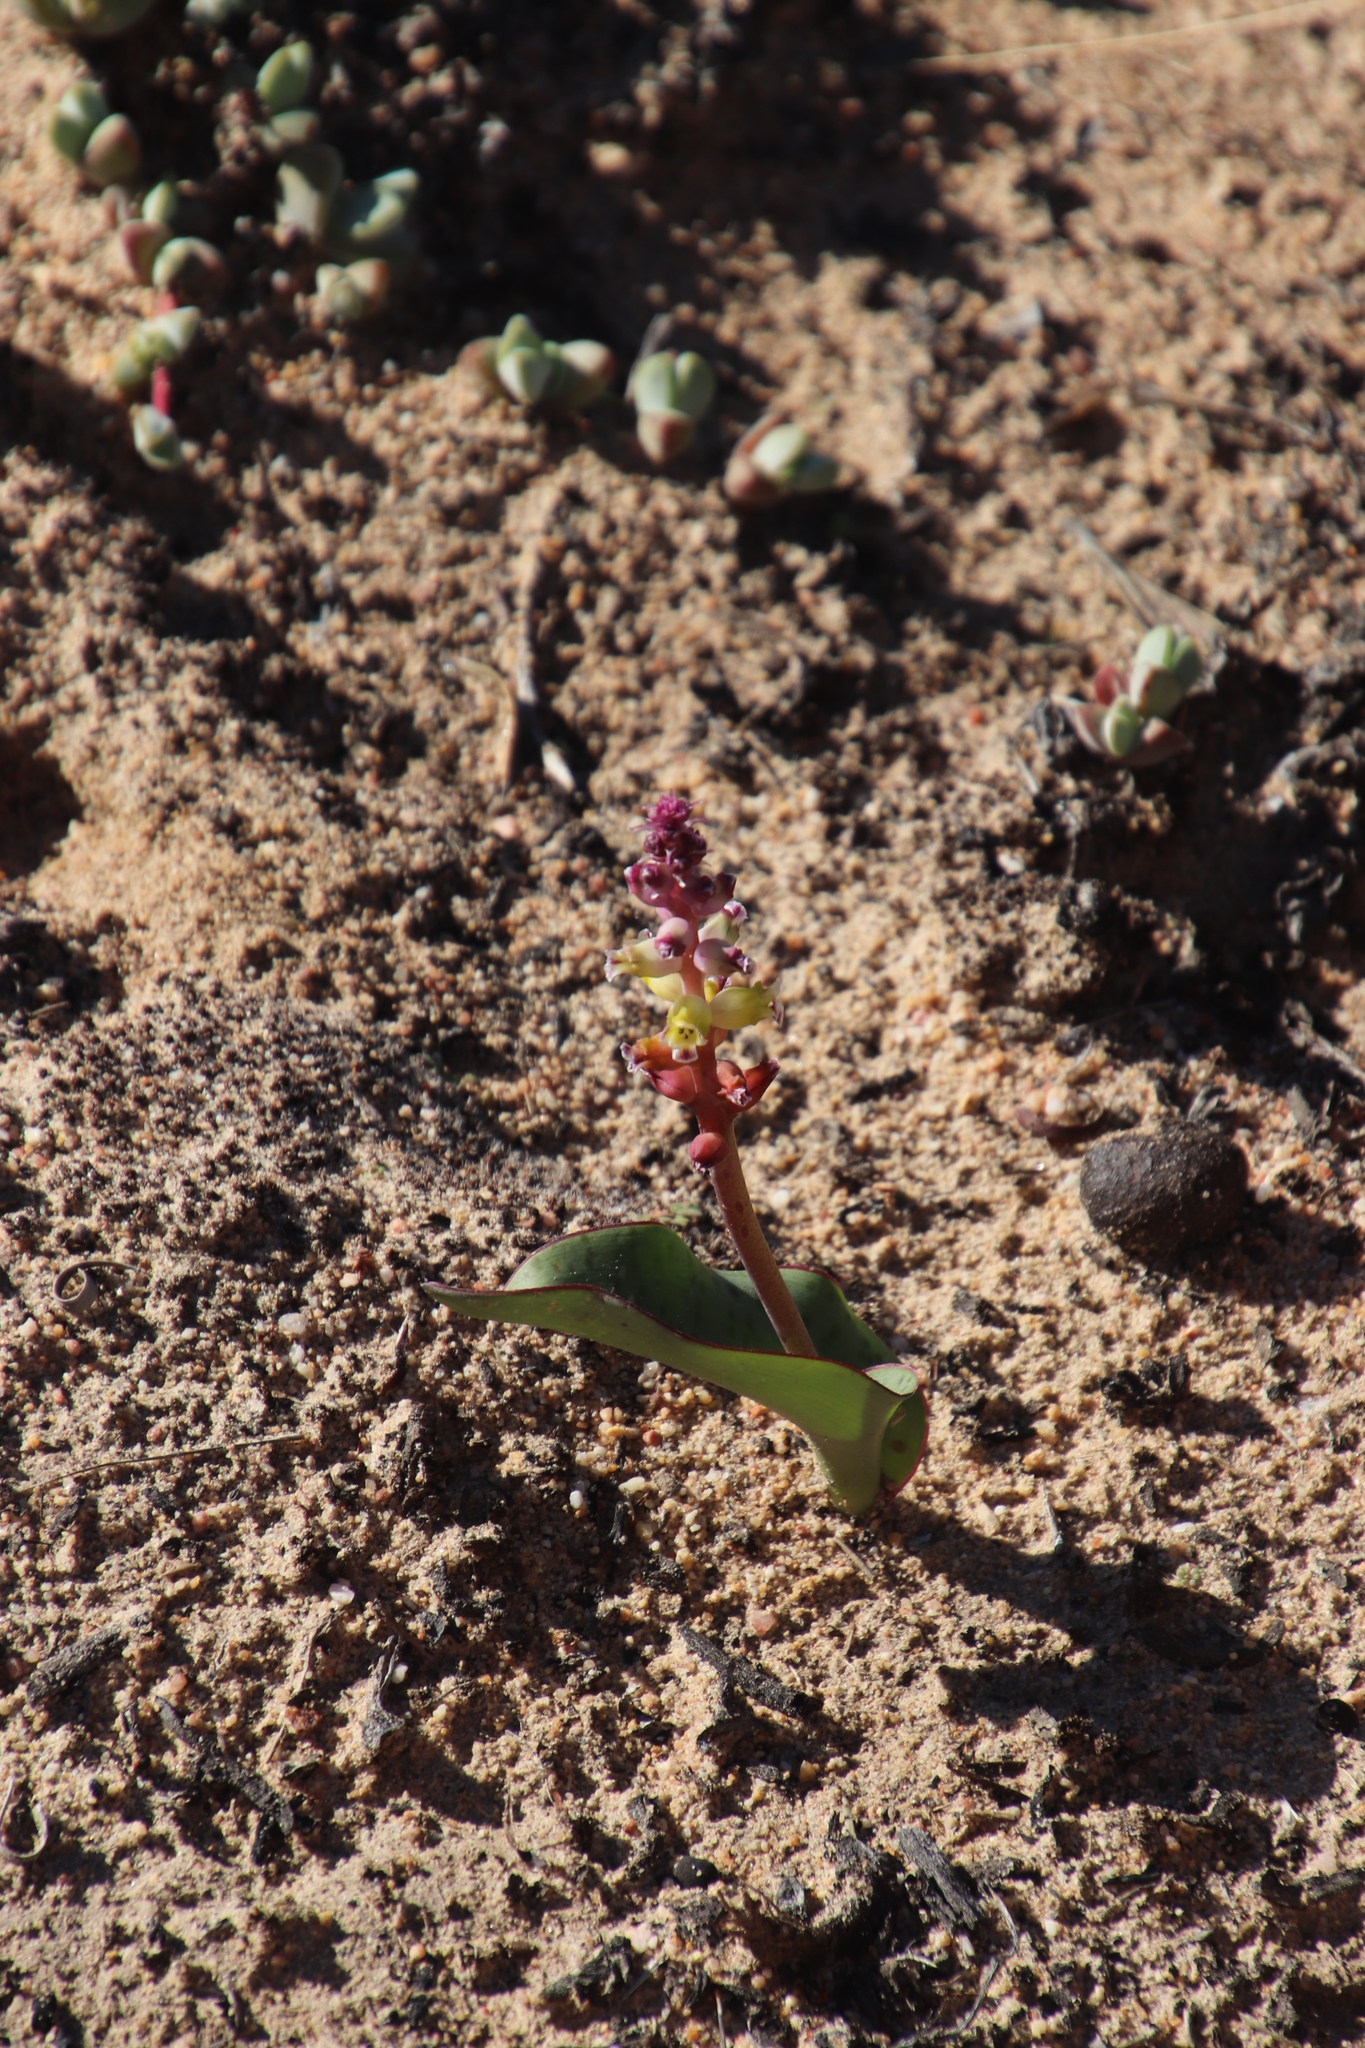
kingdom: Plantae
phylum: Tracheophyta
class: Liliopsida
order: Asparagales
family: Asparagaceae
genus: Lachenalia
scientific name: Lachenalia membranacea
